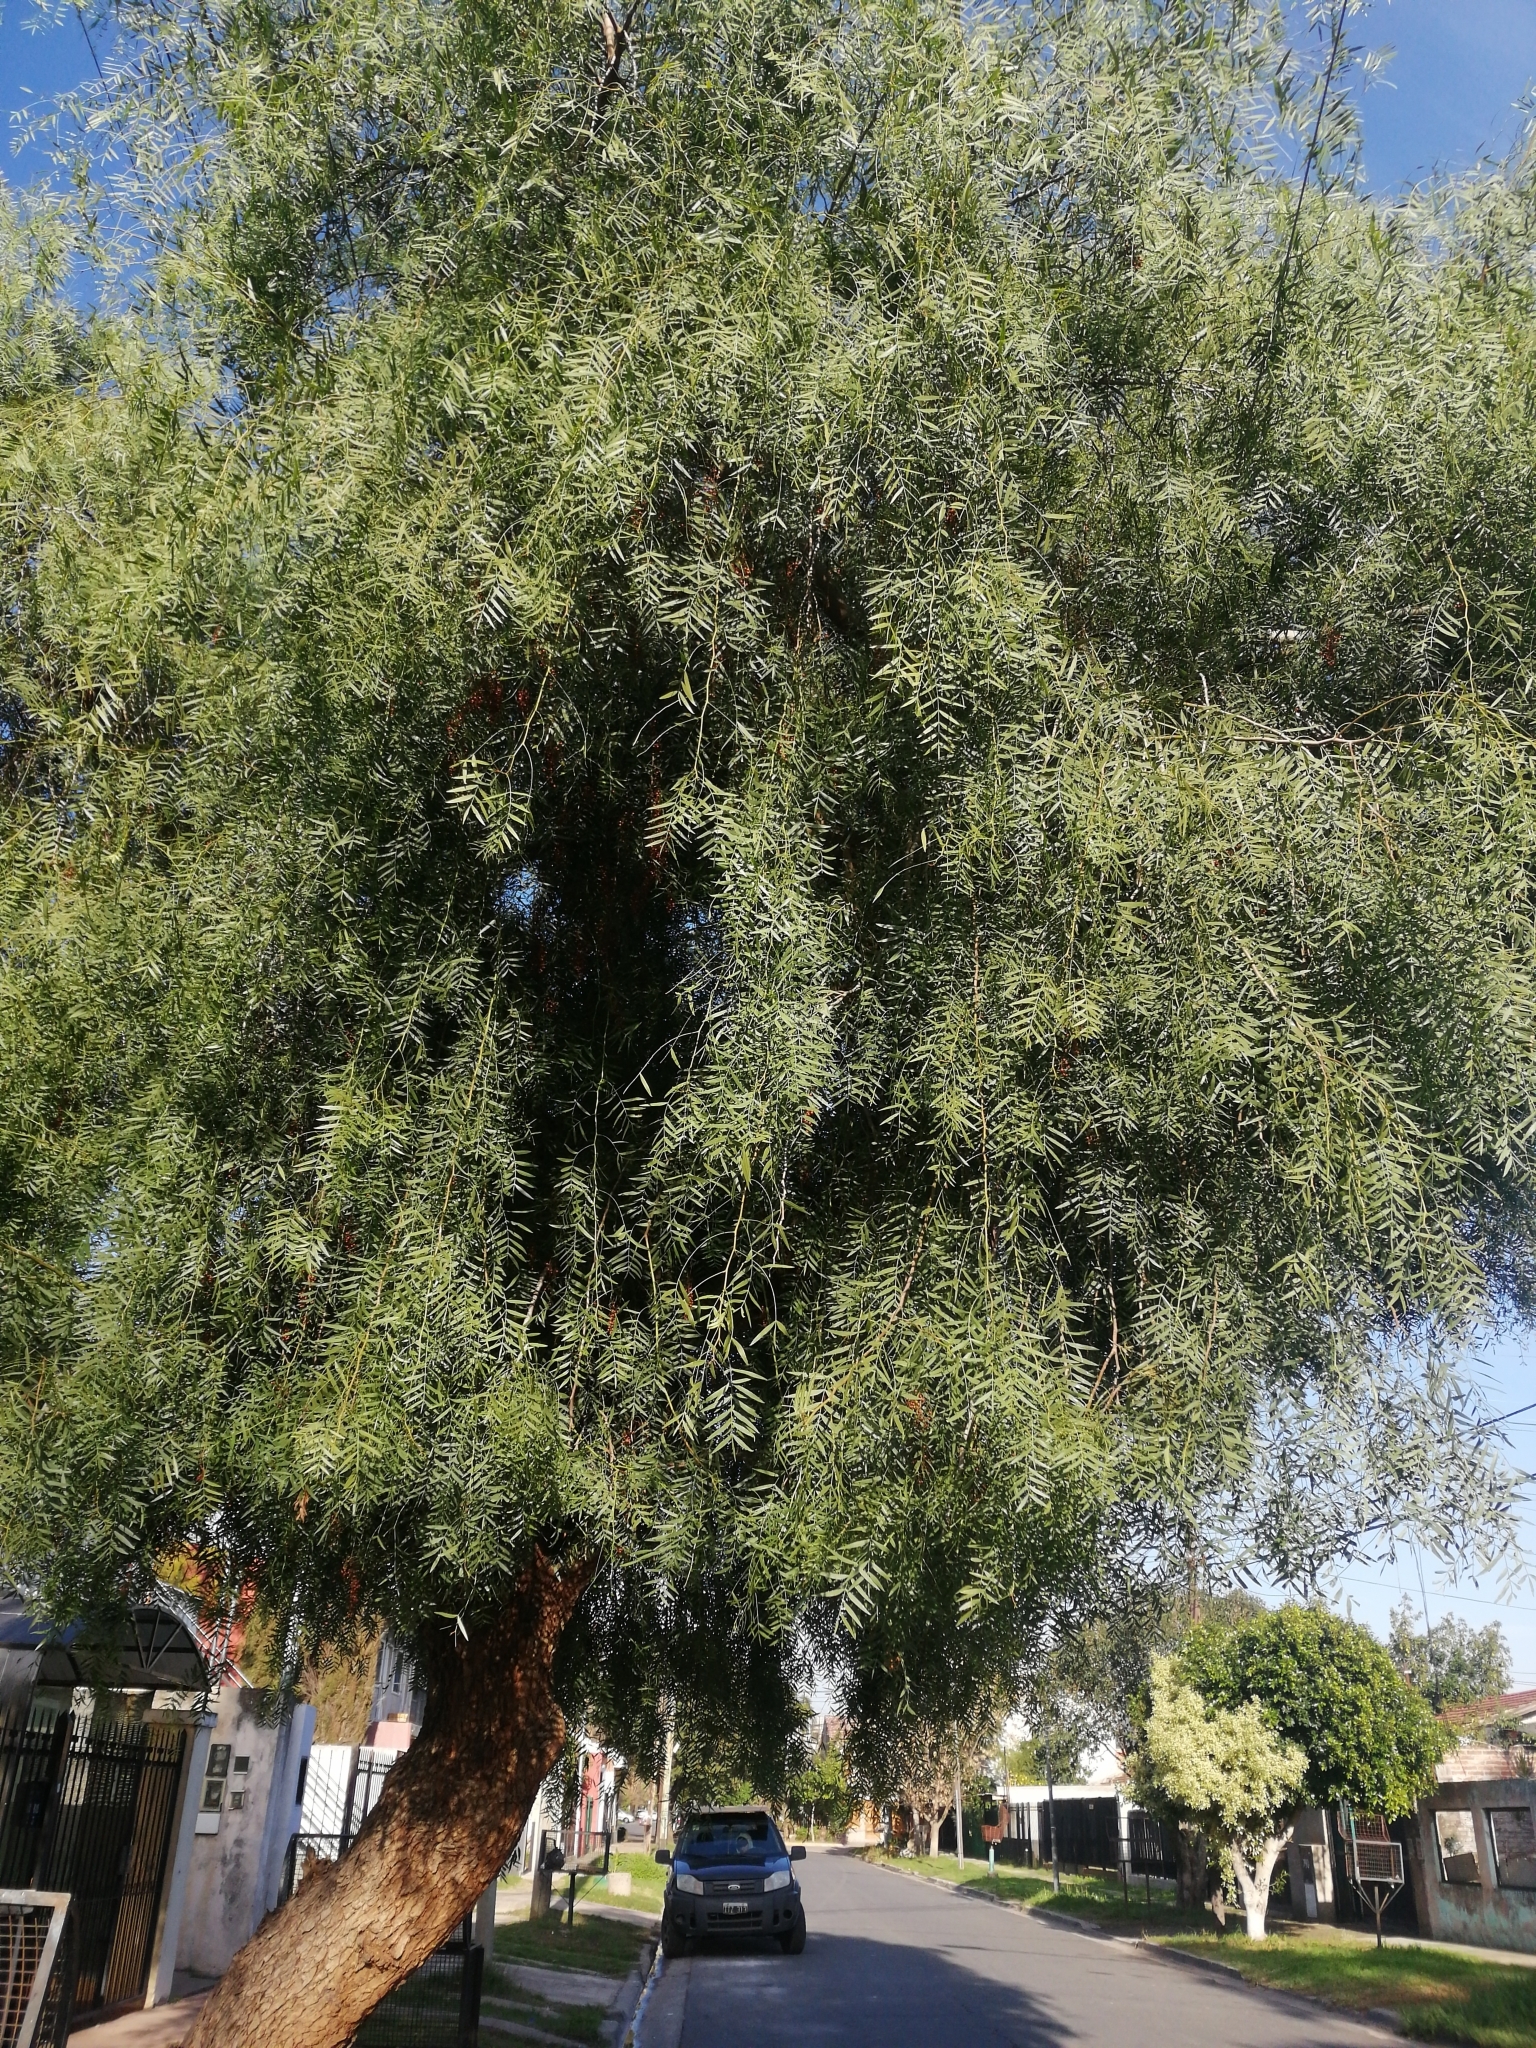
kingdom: Plantae
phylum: Tracheophyta
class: Magnoliopsida
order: Sapindales
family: Anacardiaceae
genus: Schinus
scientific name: Schinus molle
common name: Peruvian peppertree
